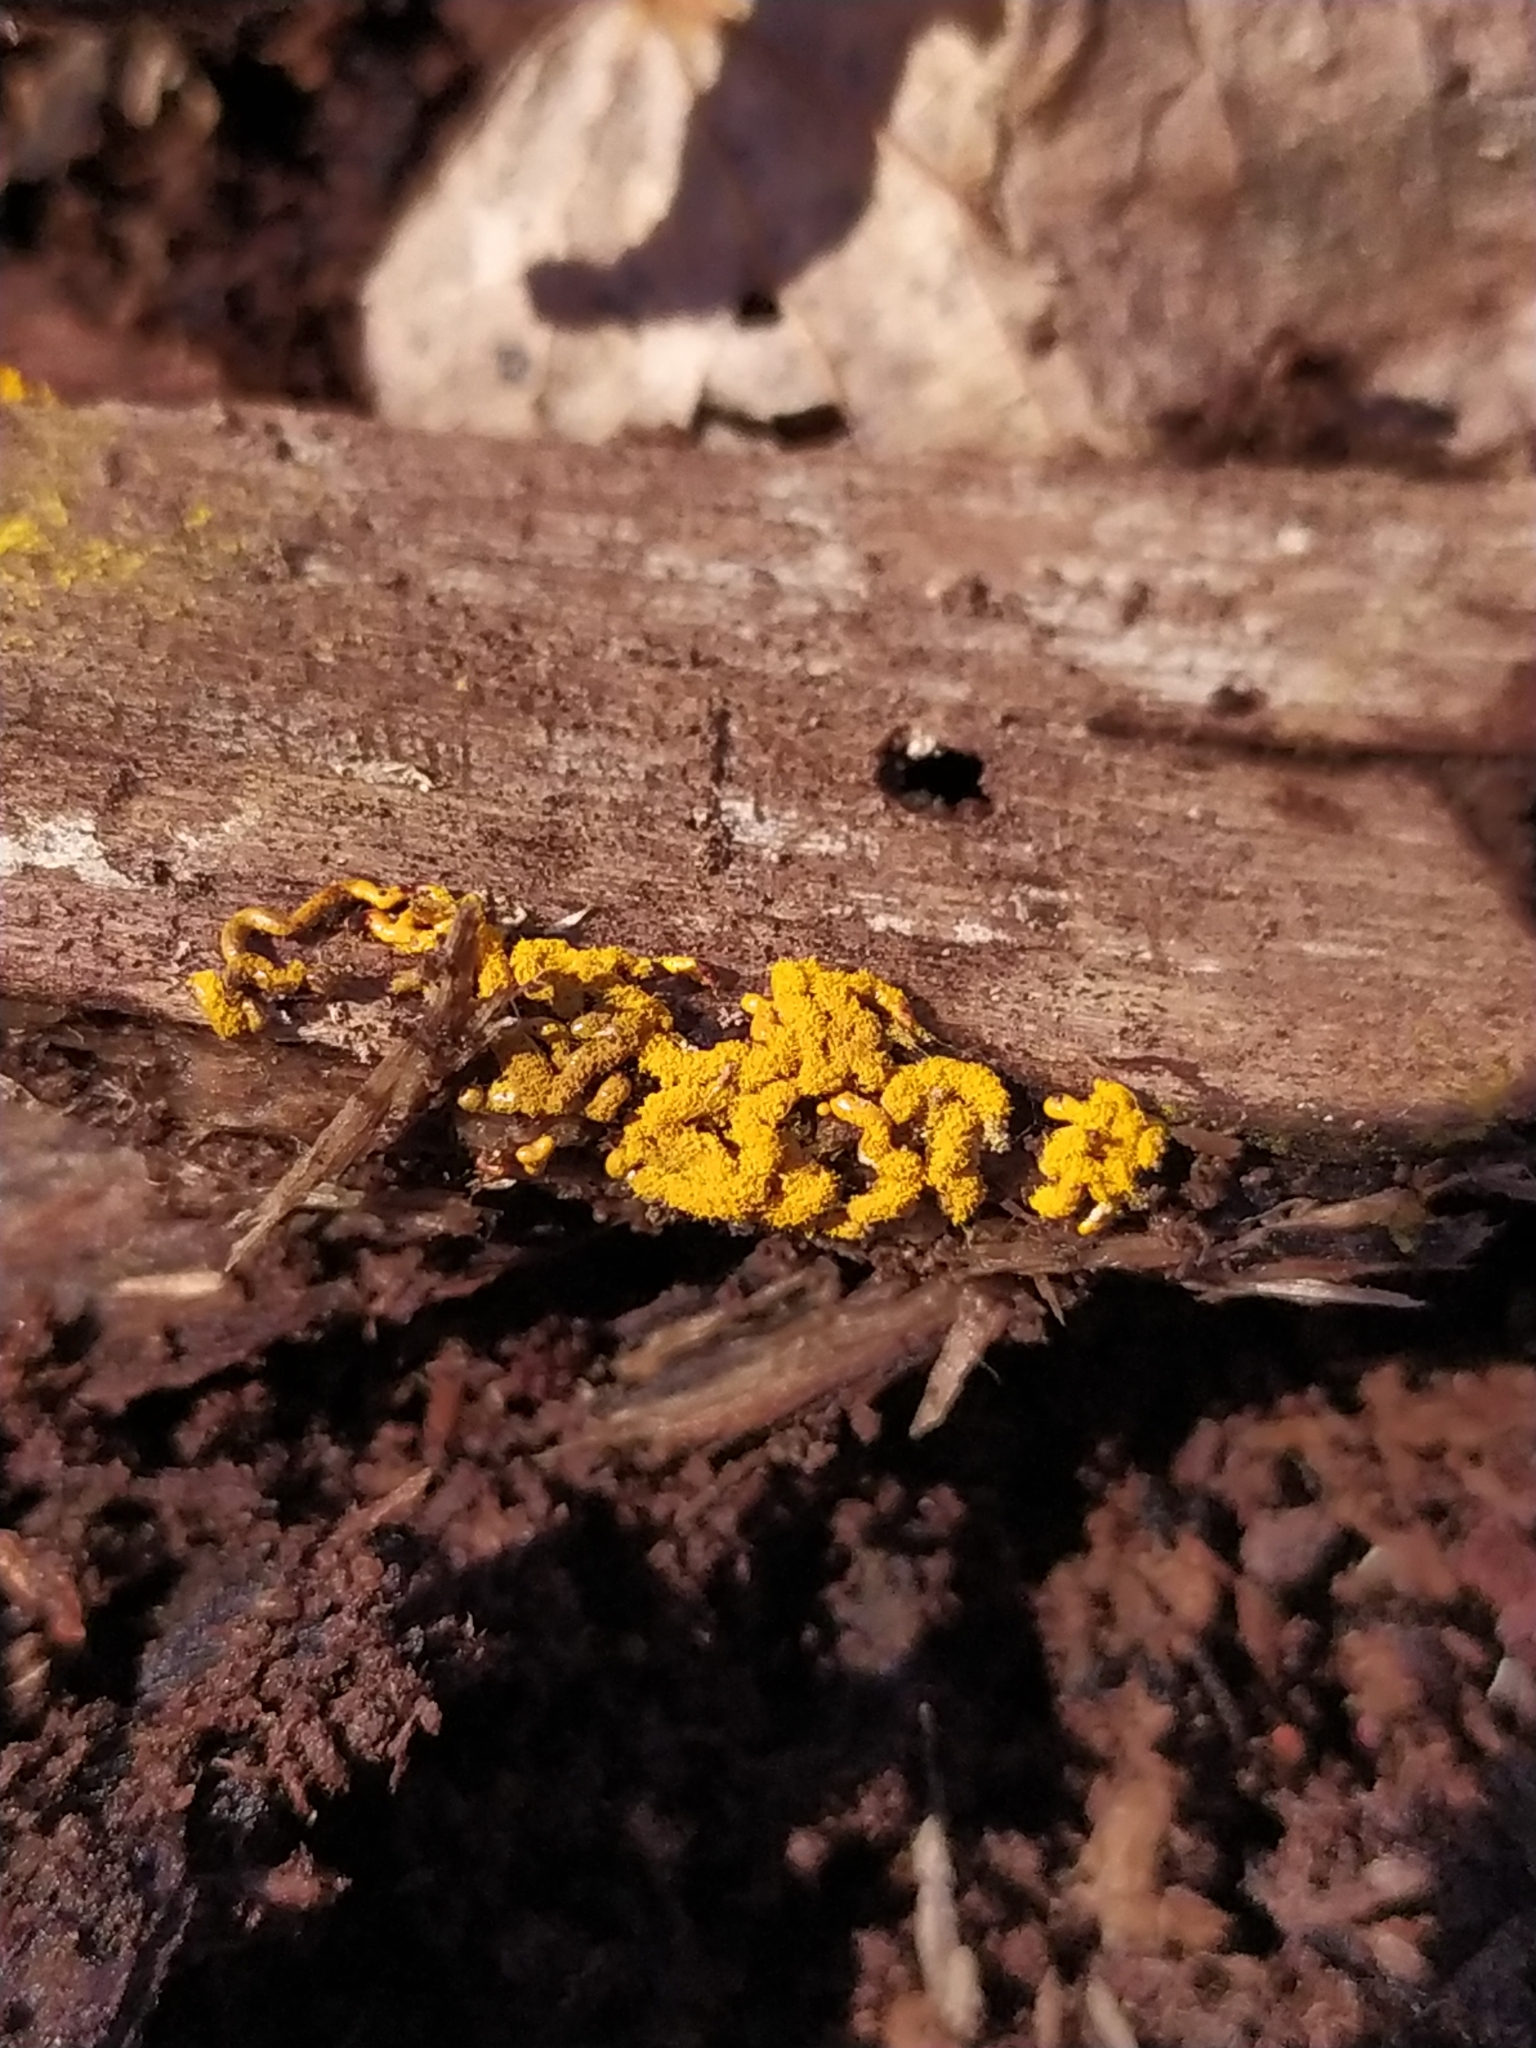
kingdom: Protozoa
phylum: Mycetozoa
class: Myxomycetes
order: Trichiales
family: Arcyriaceae
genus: Hemitrichia
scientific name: Hemitrichia serpula
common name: Pretzel slime mold
